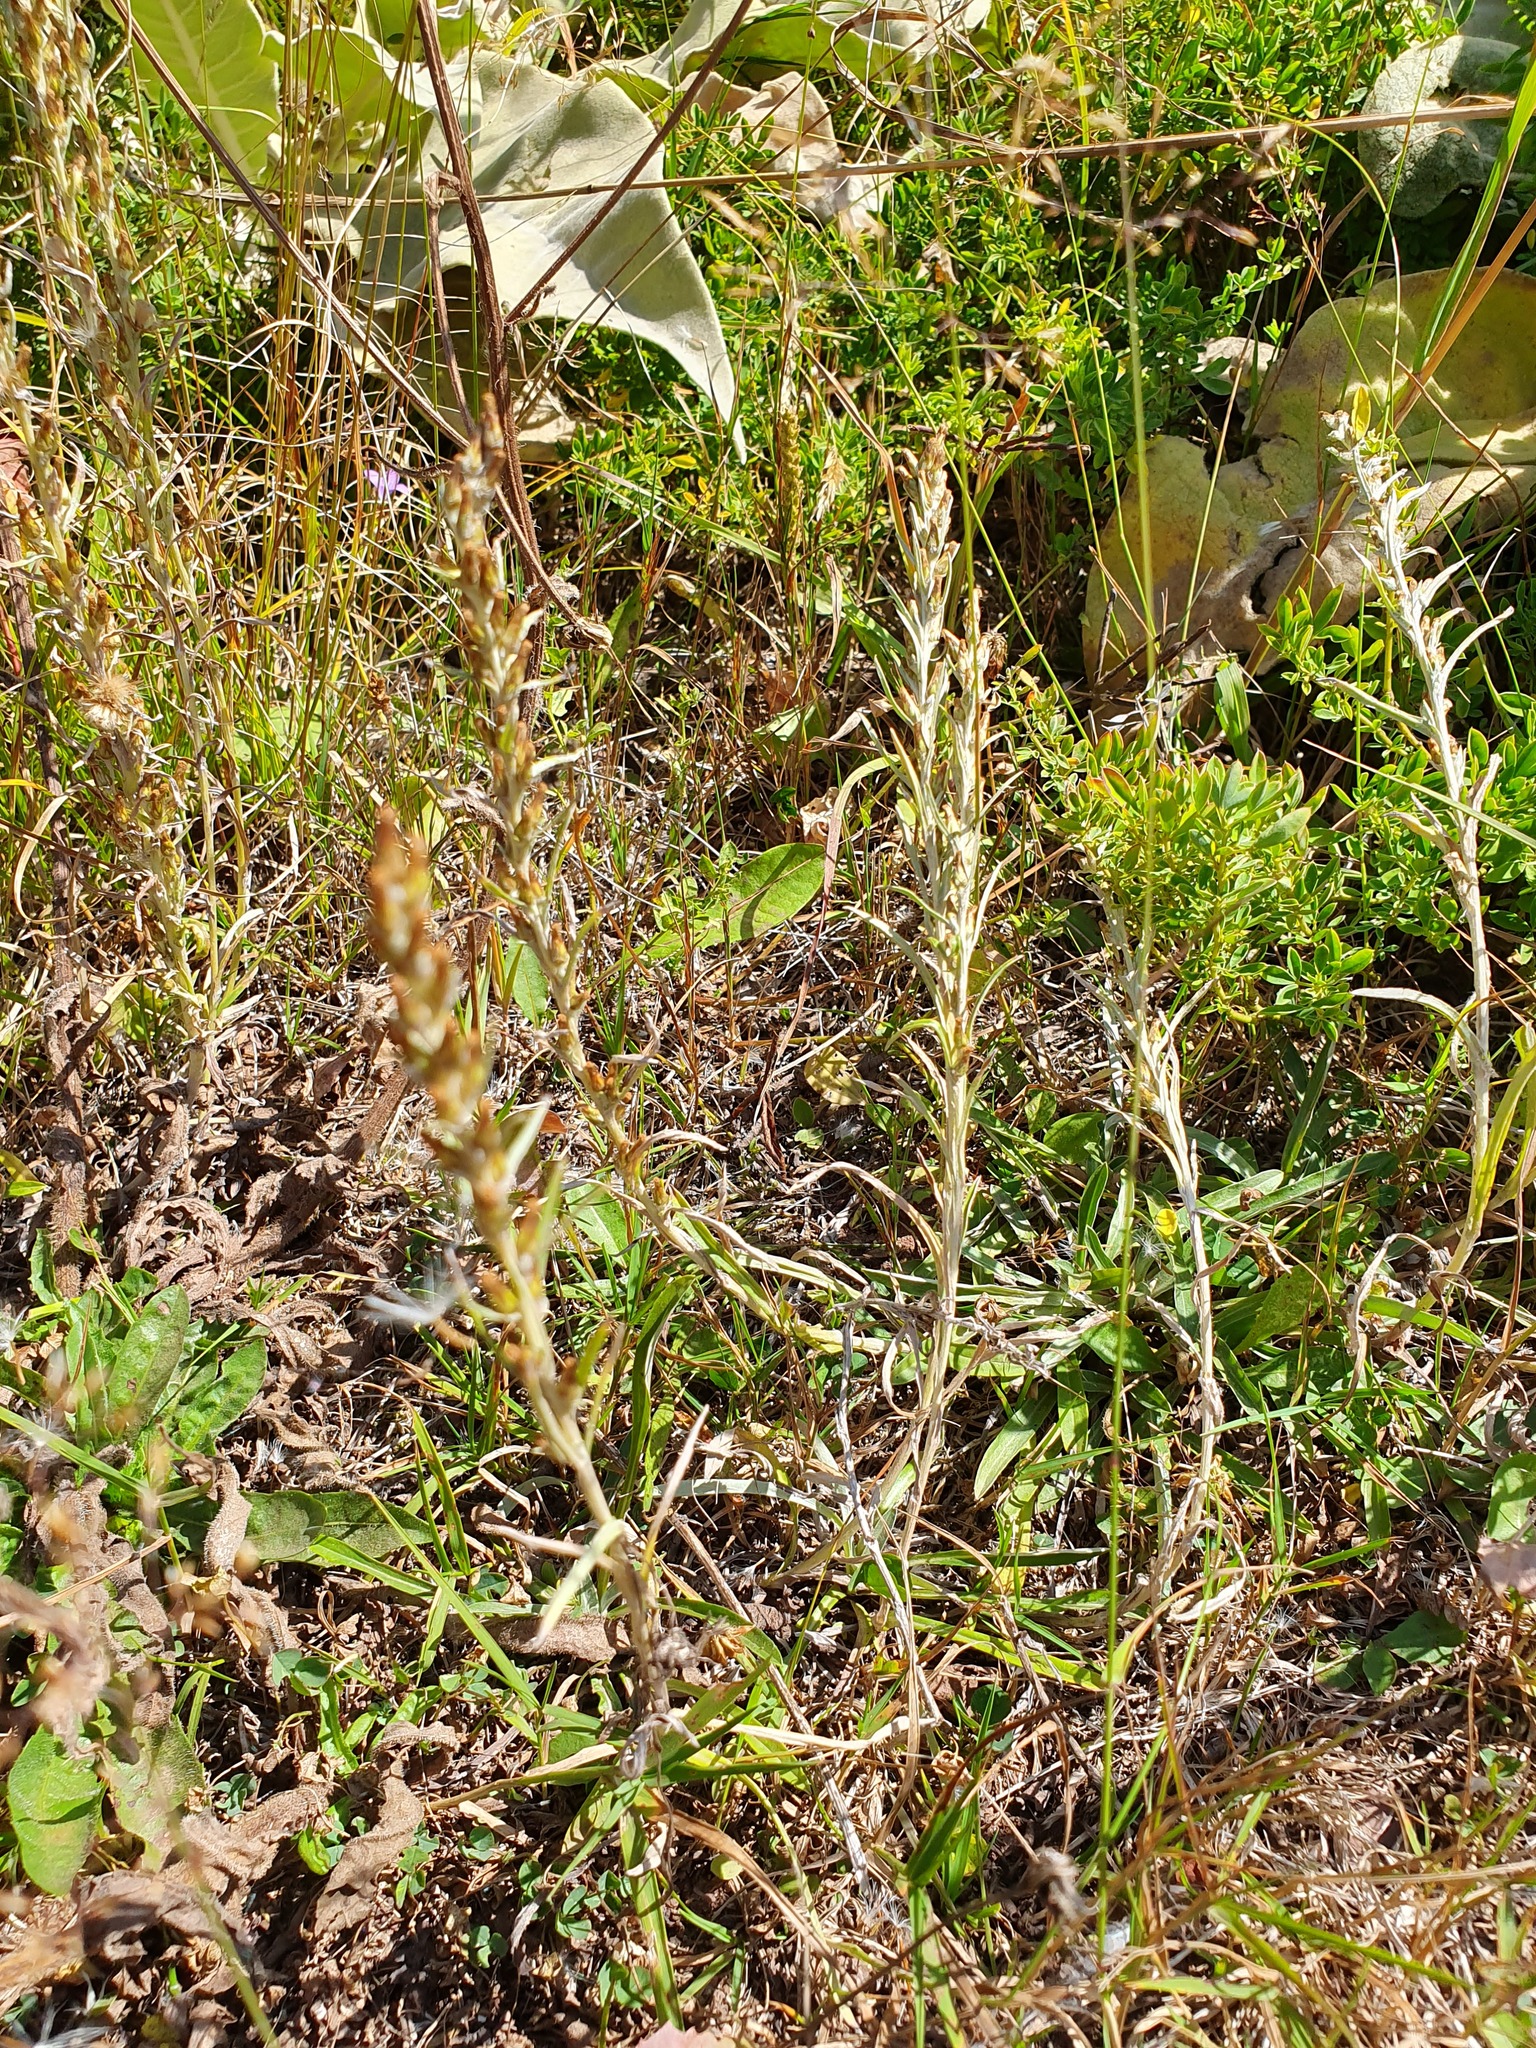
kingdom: Plantae
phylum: Tracheophyta
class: Magnoliopsida
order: Asterales
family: Asteraceae
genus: Omalotheca
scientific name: Omalotheca sylvatica
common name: Heath cudweed
